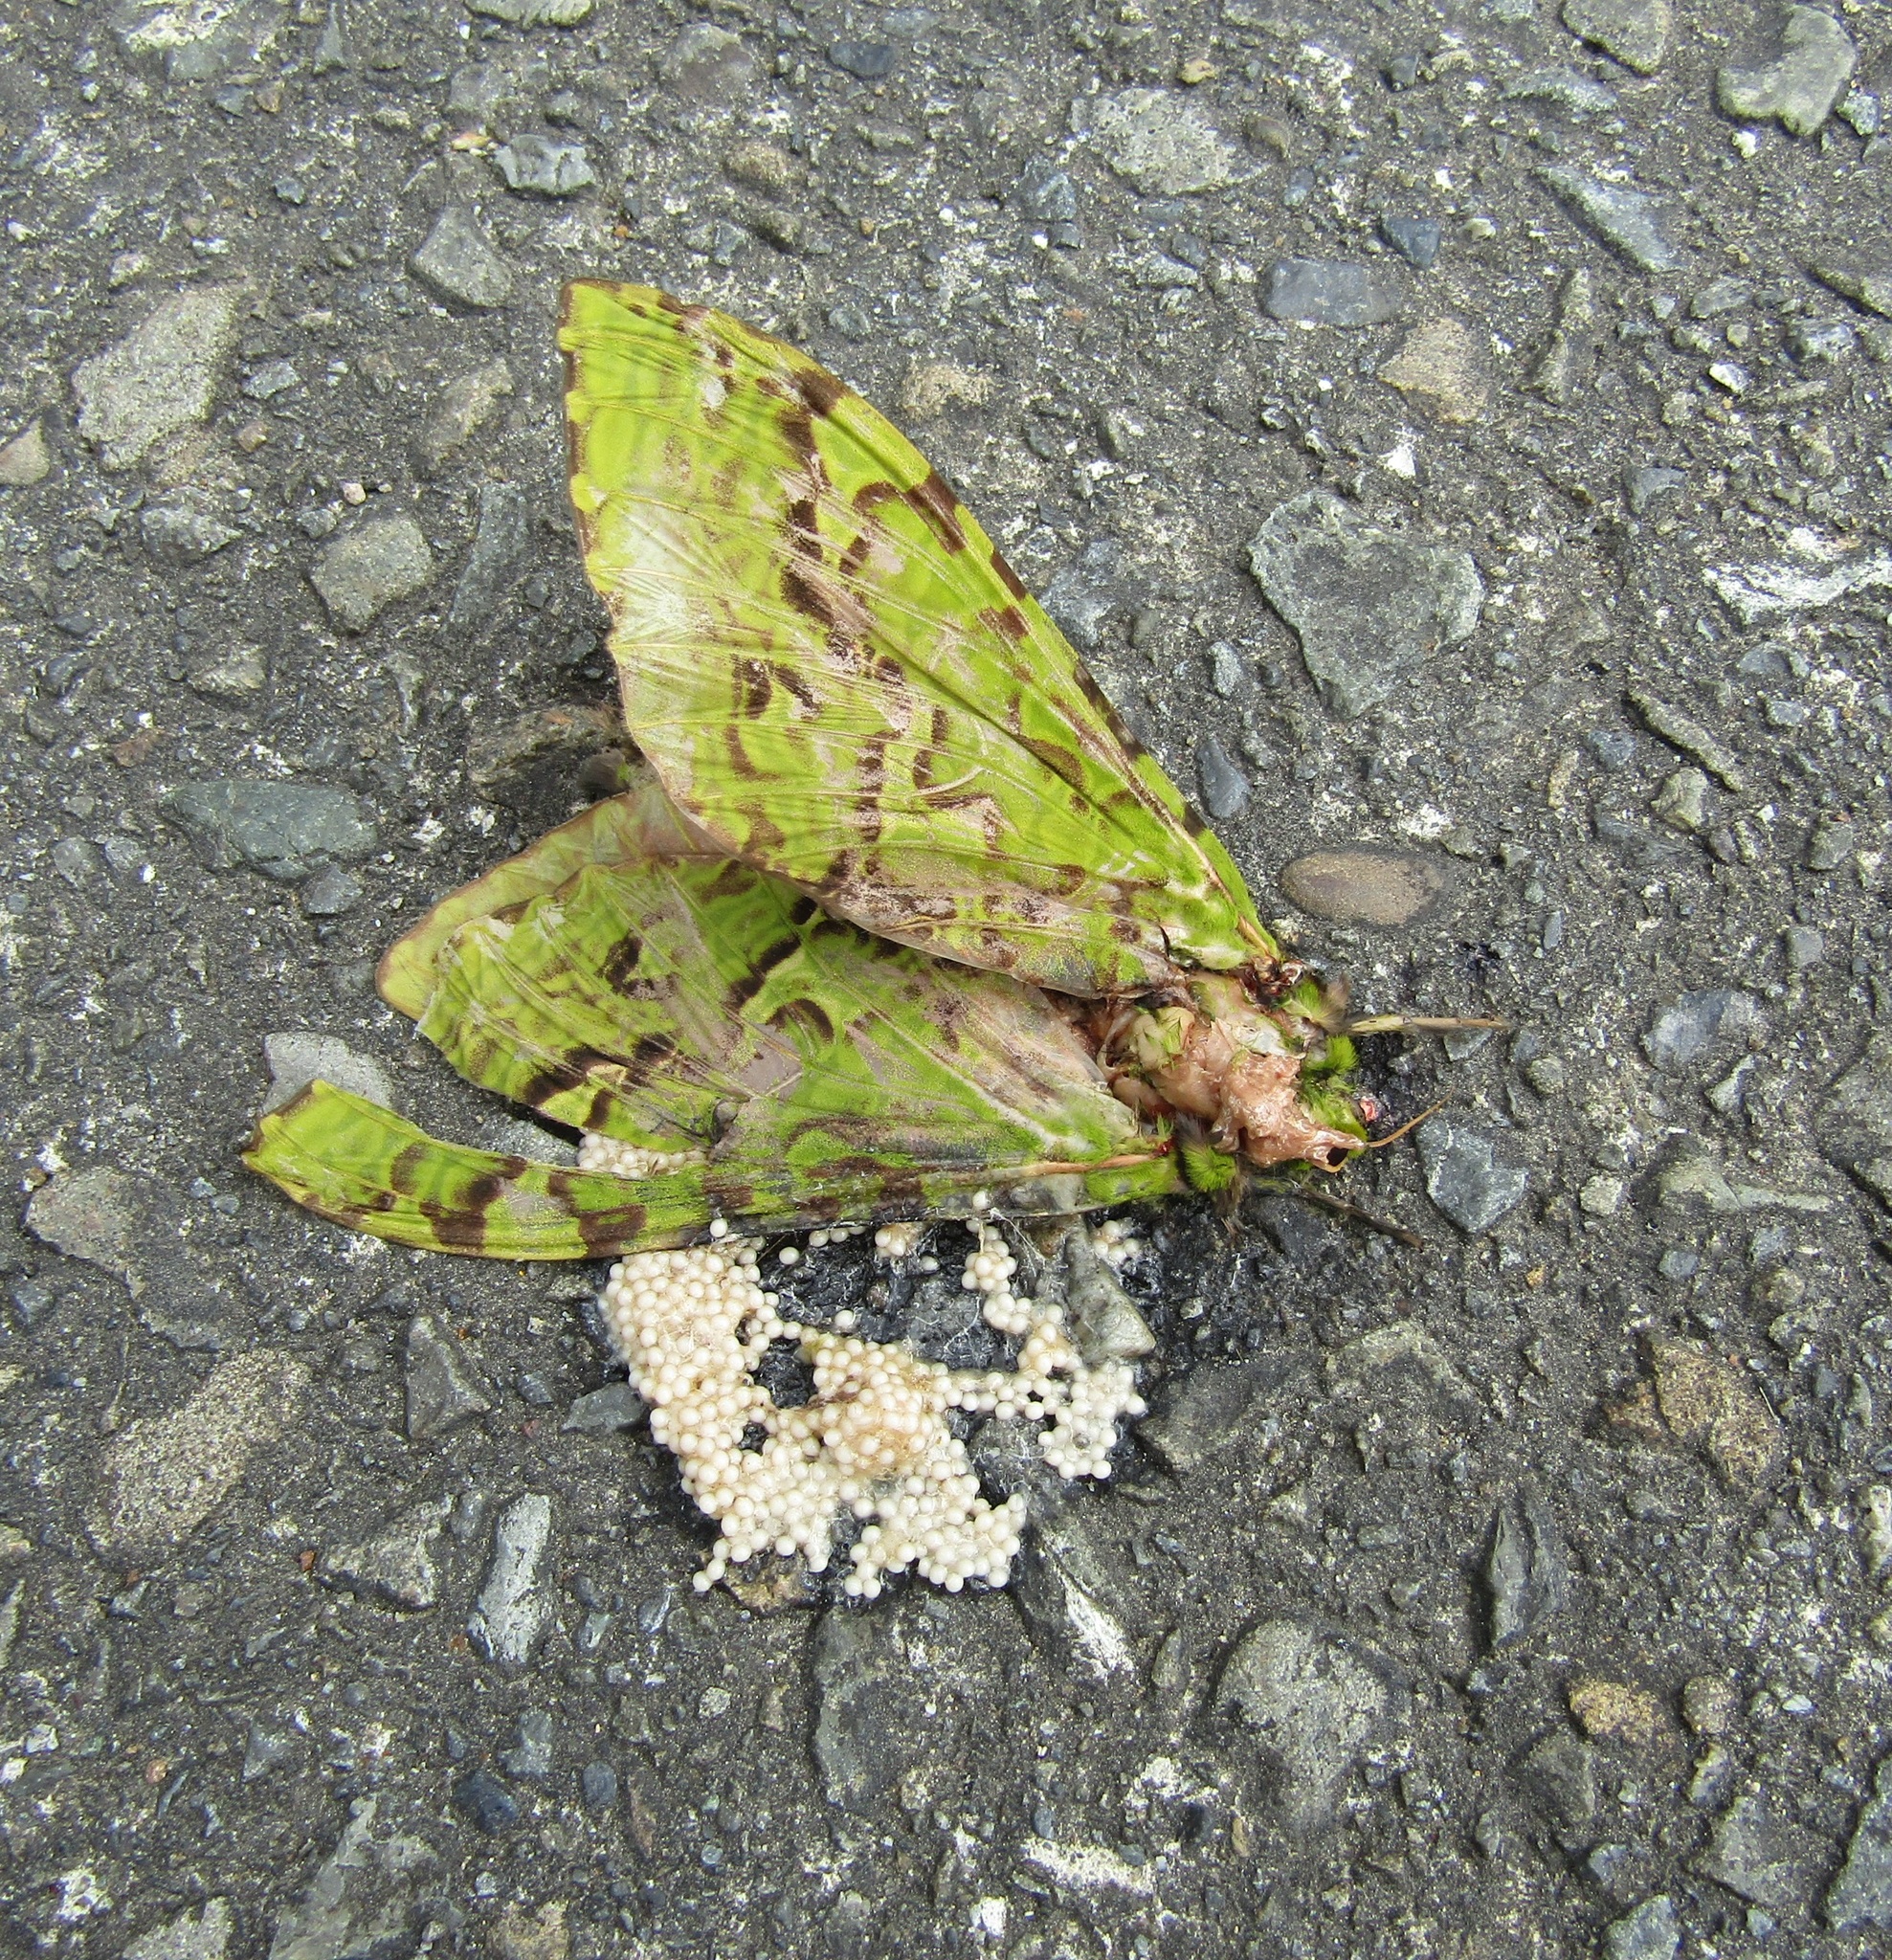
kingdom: Animalia
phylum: Arthropoda
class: Insecta
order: Lepidoptera
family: Hepialidae
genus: Aenetus
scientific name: Aenetus virescens
